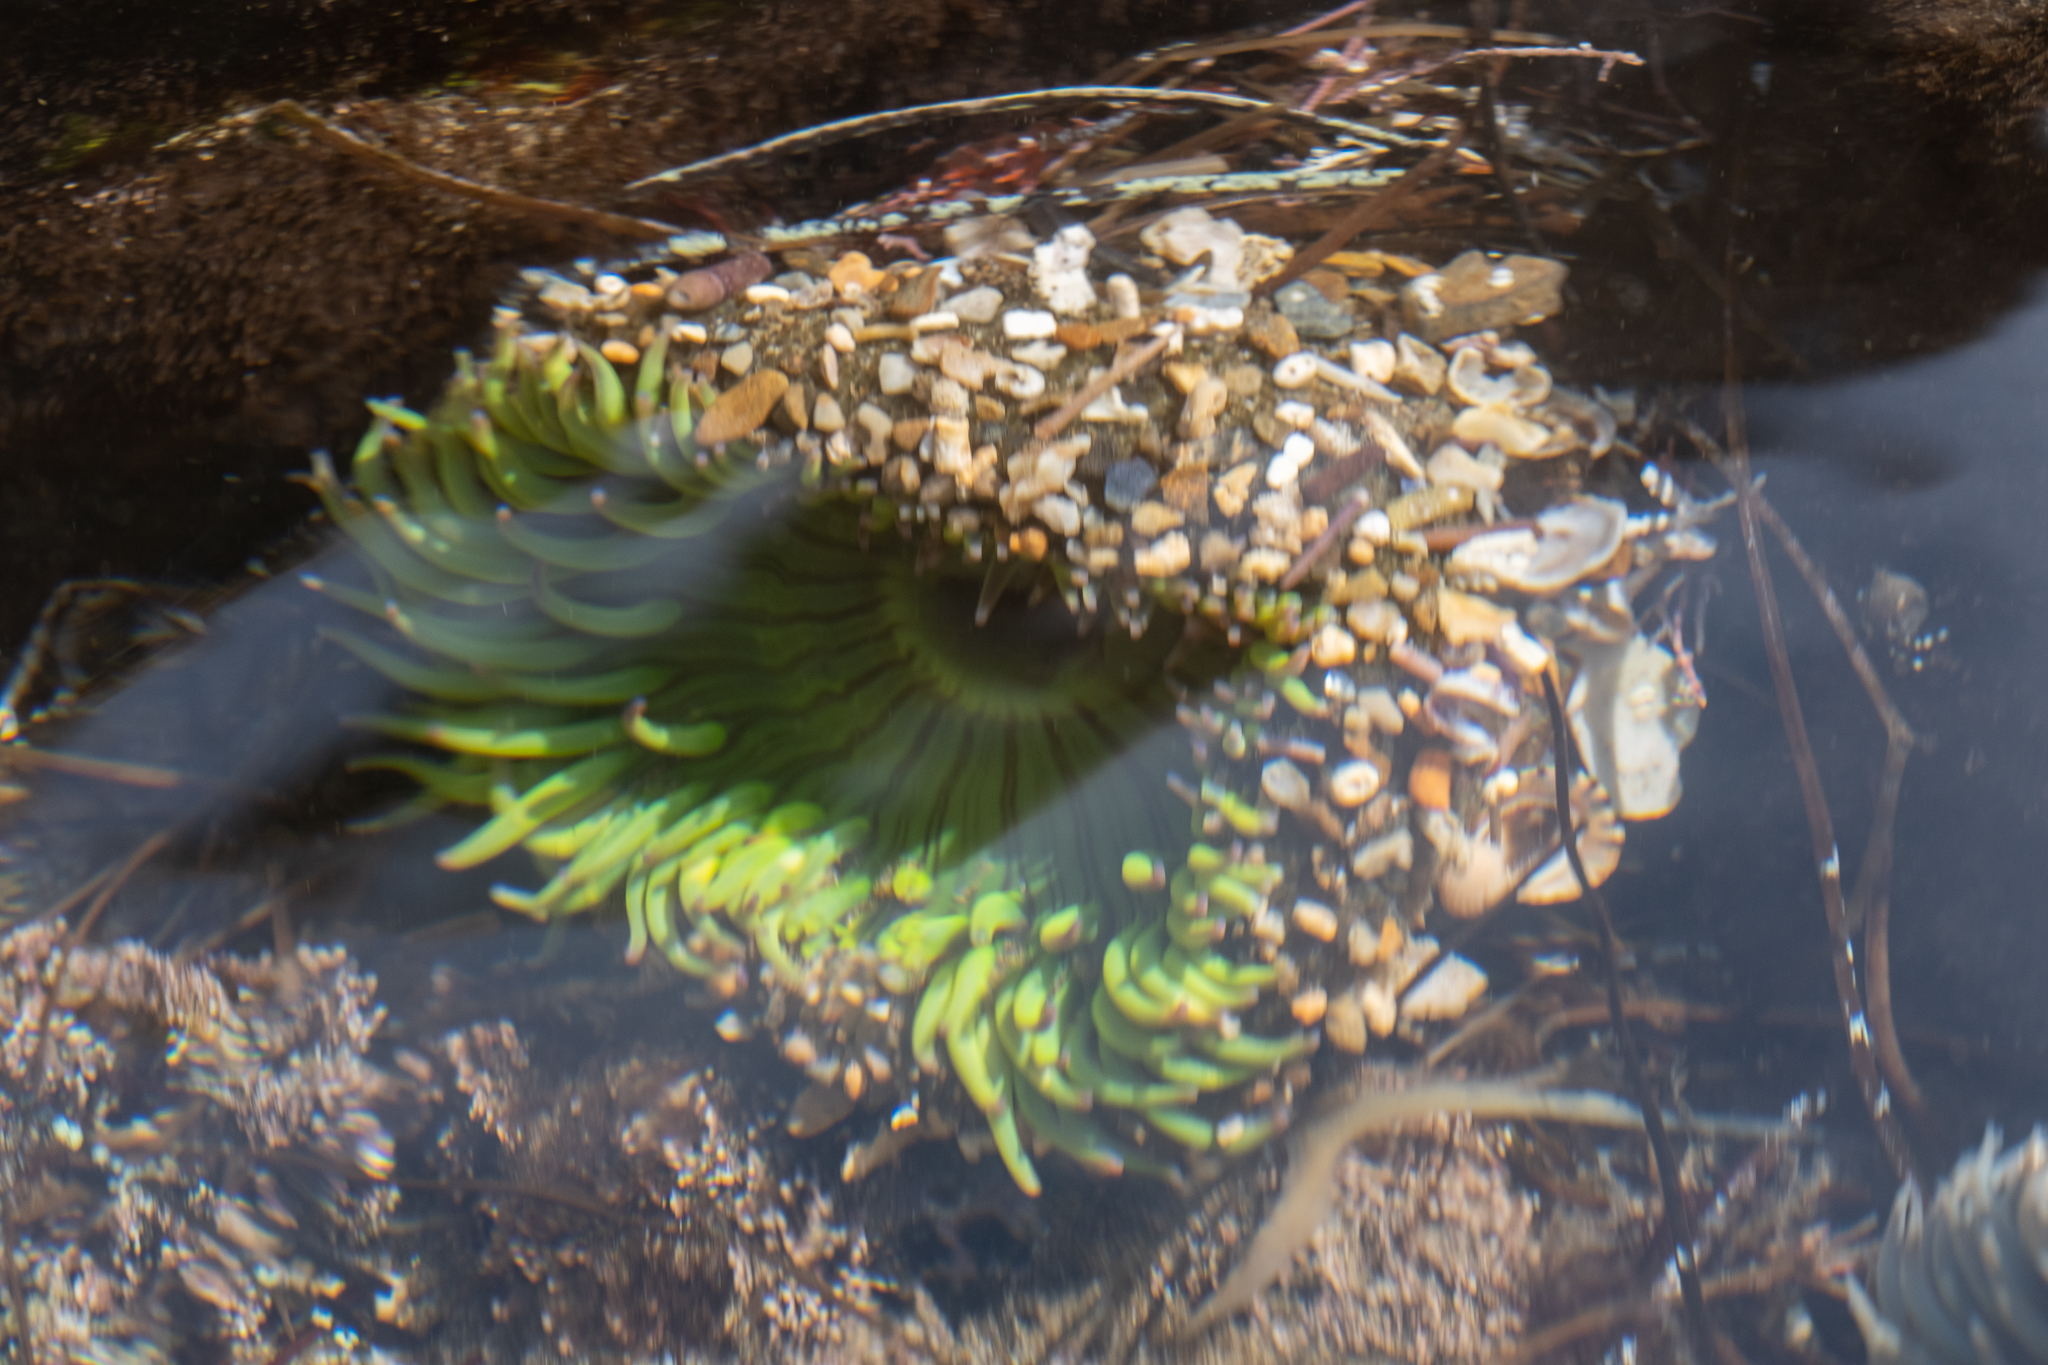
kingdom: Animalia
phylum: Cnidaria
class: Anthozoa
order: Actiniaria
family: Actiniidae
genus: Anthopleura
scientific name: Anthopleura sola
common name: Sun anemone
